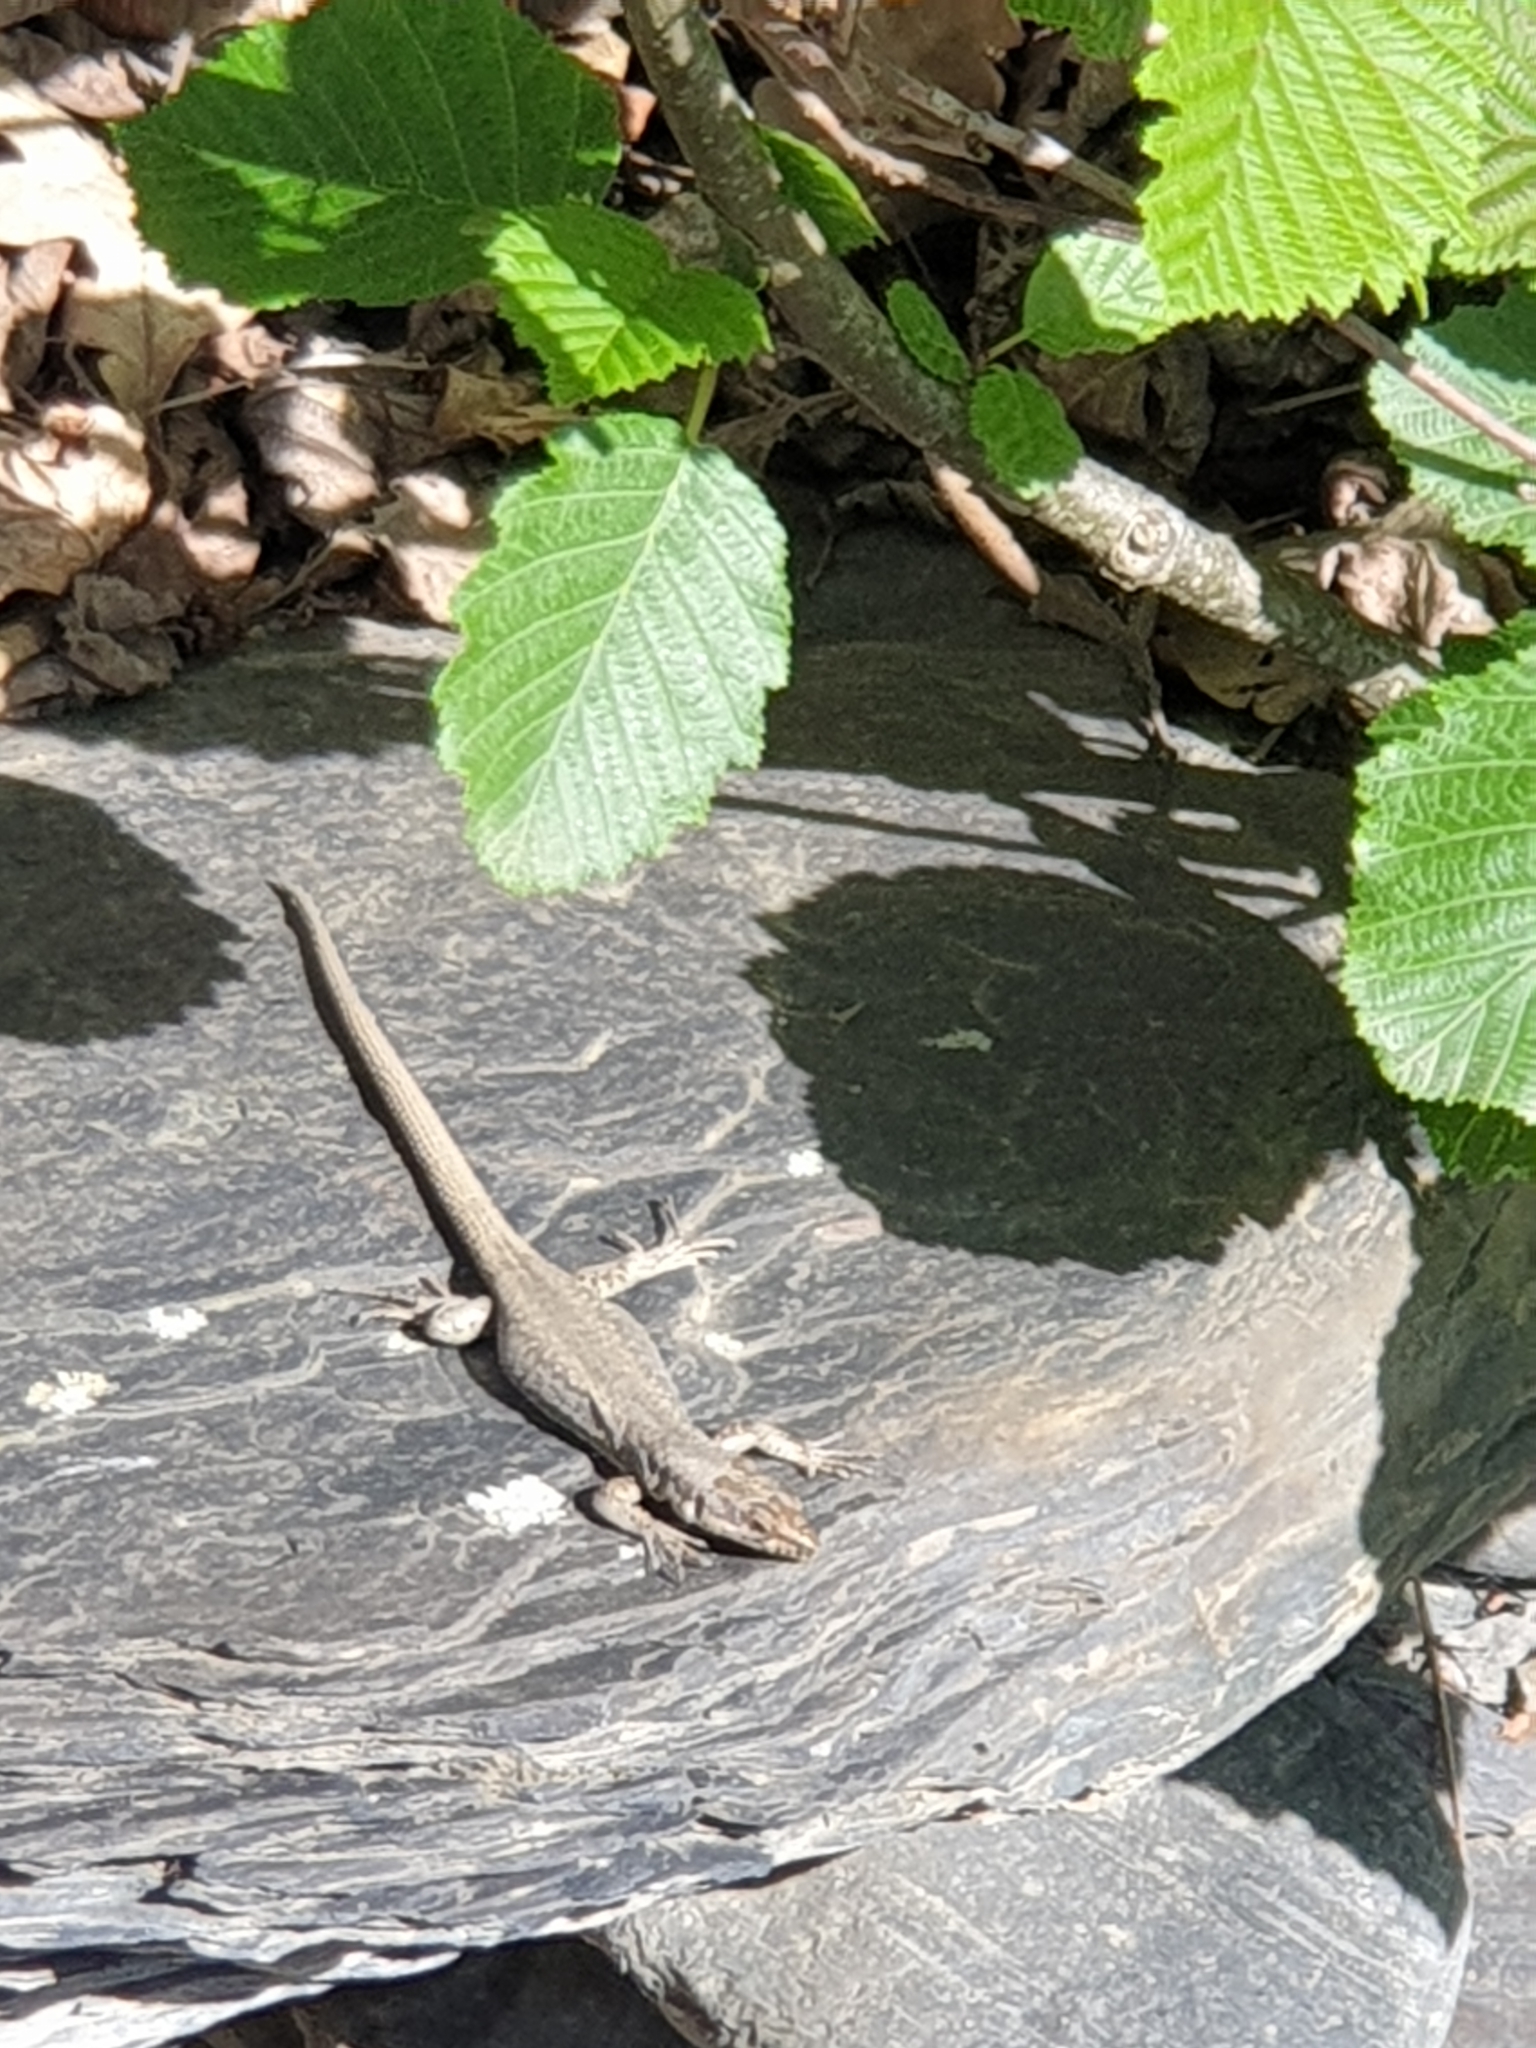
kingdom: Animalia
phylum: Chordata
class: Squamata
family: Lacertidae
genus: Darevskia
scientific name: Darevskia daghestanica
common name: Dagestan lizard
